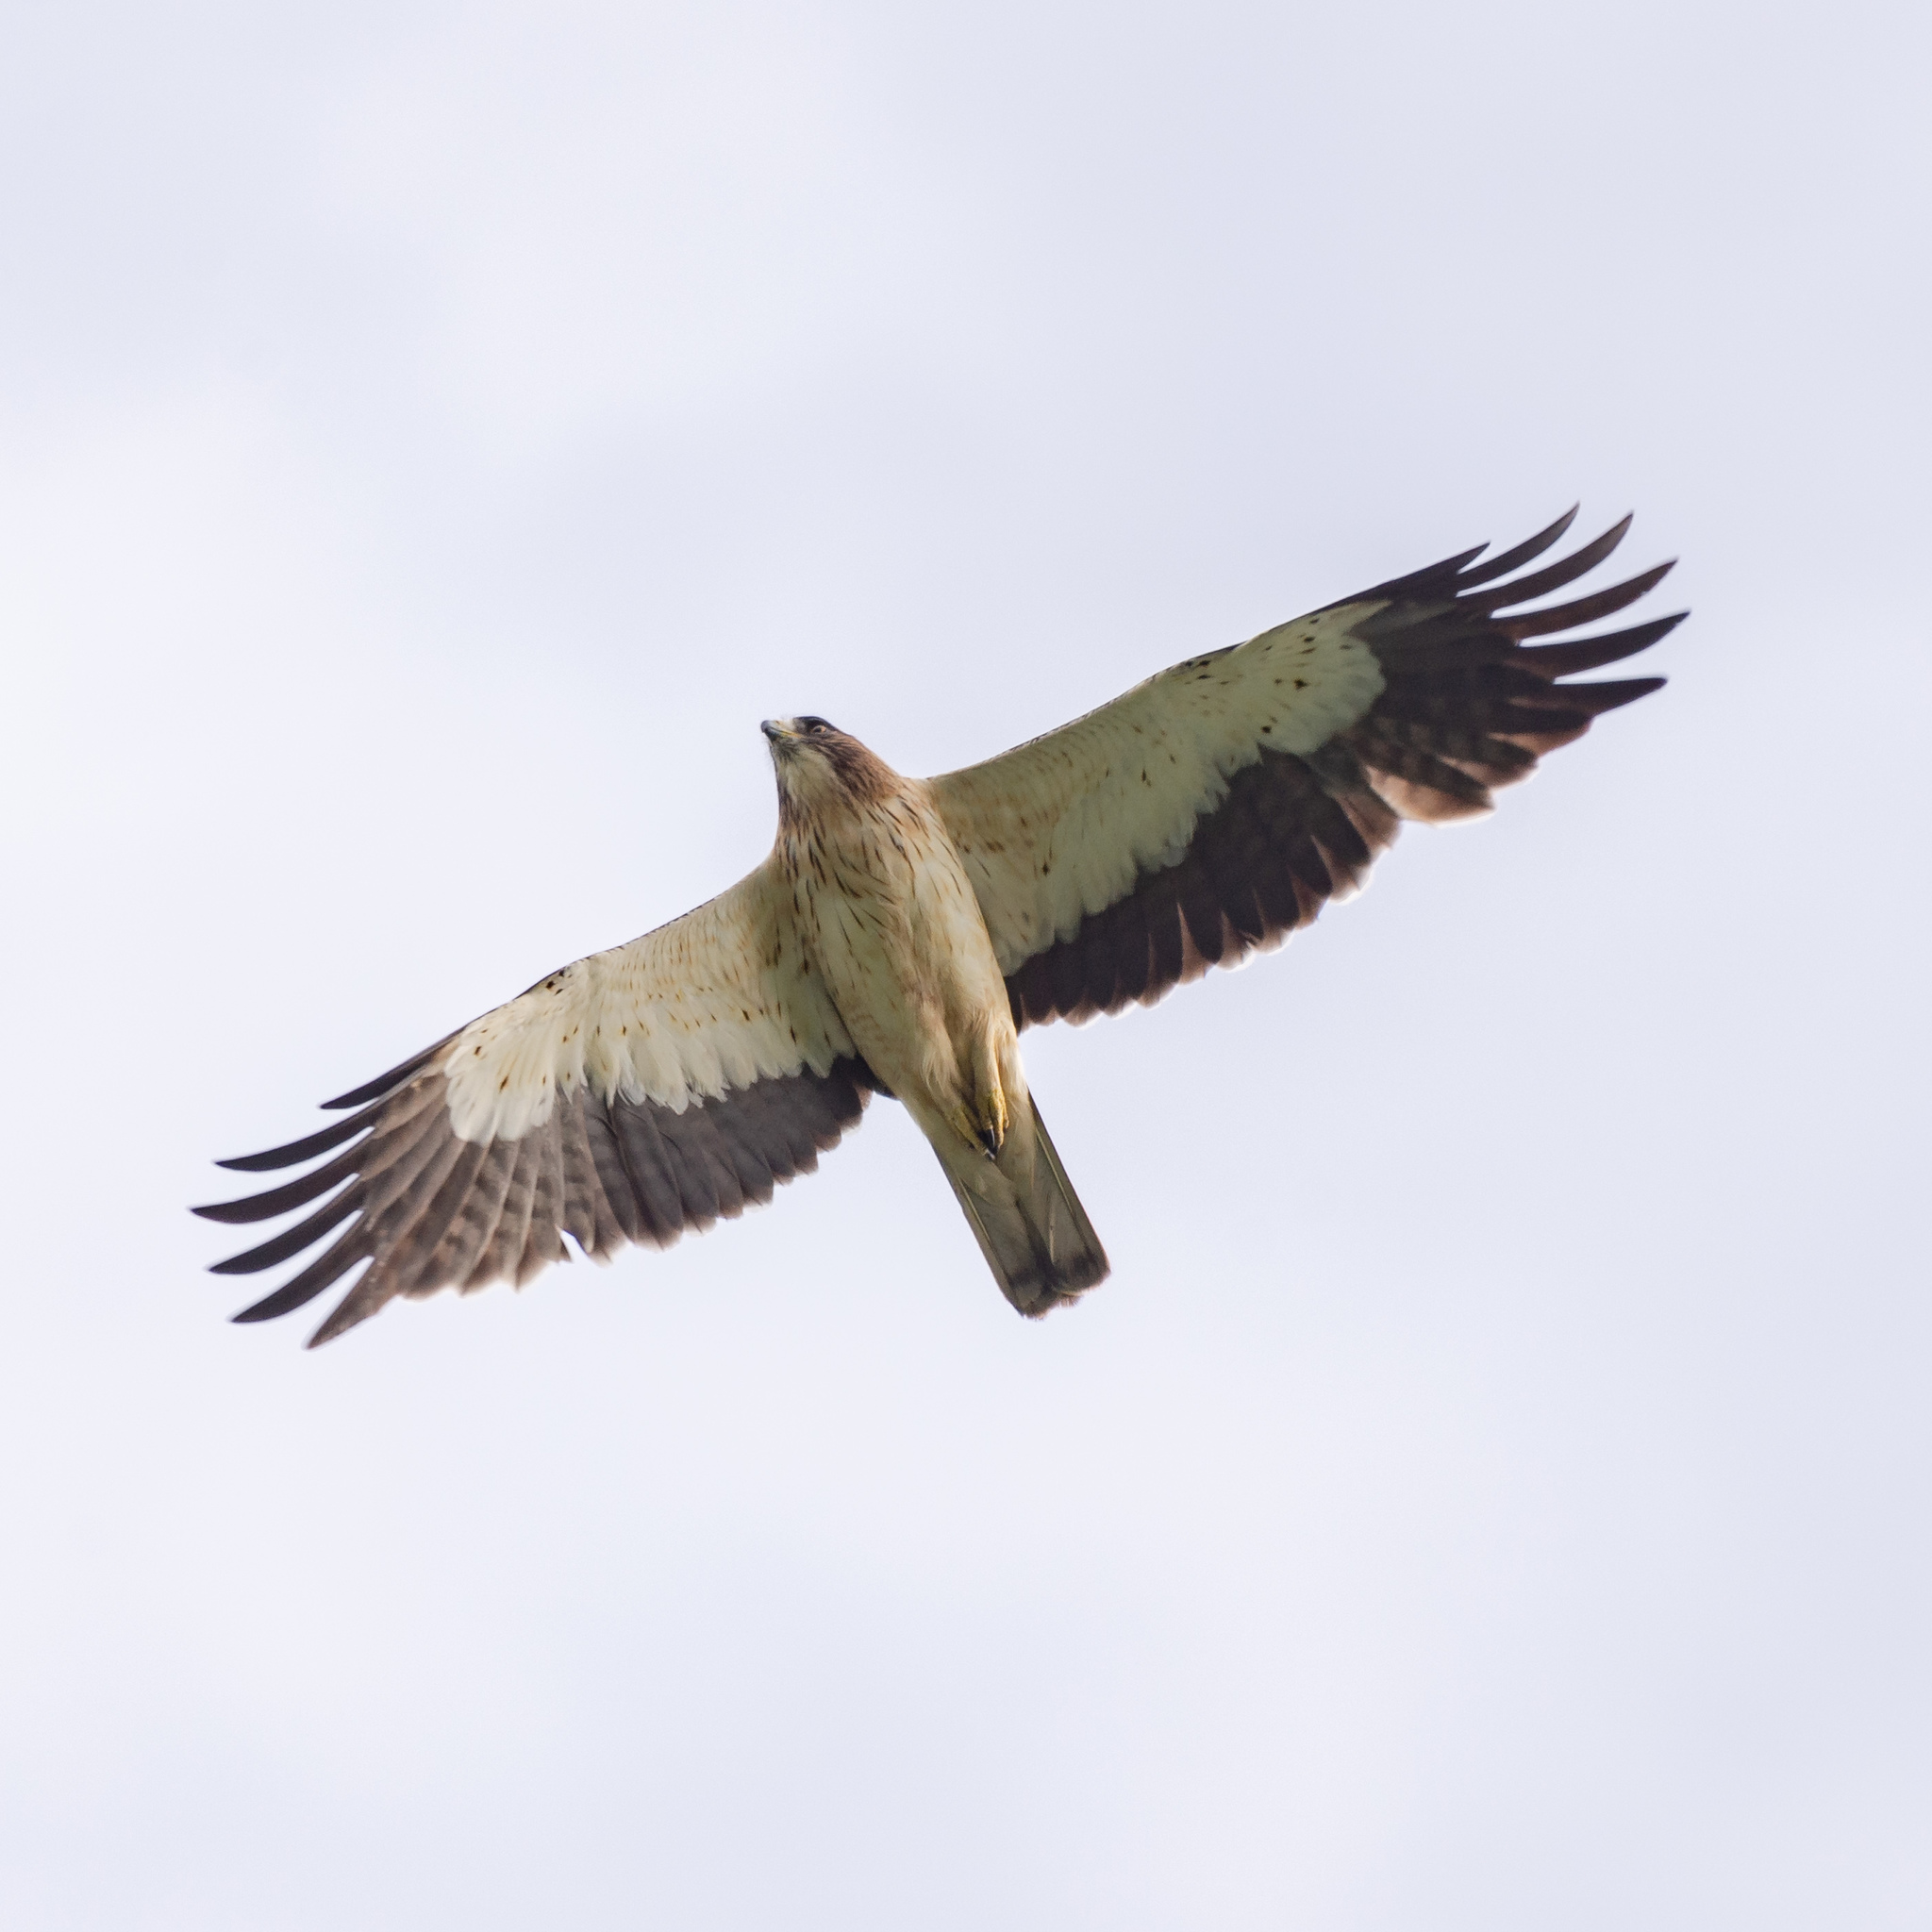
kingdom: Animalia
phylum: Chordata
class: Aves
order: Accipitriformes
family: Accipitridae
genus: Hieraaetus
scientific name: Hieraaetus pennatus
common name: Booted eagle
